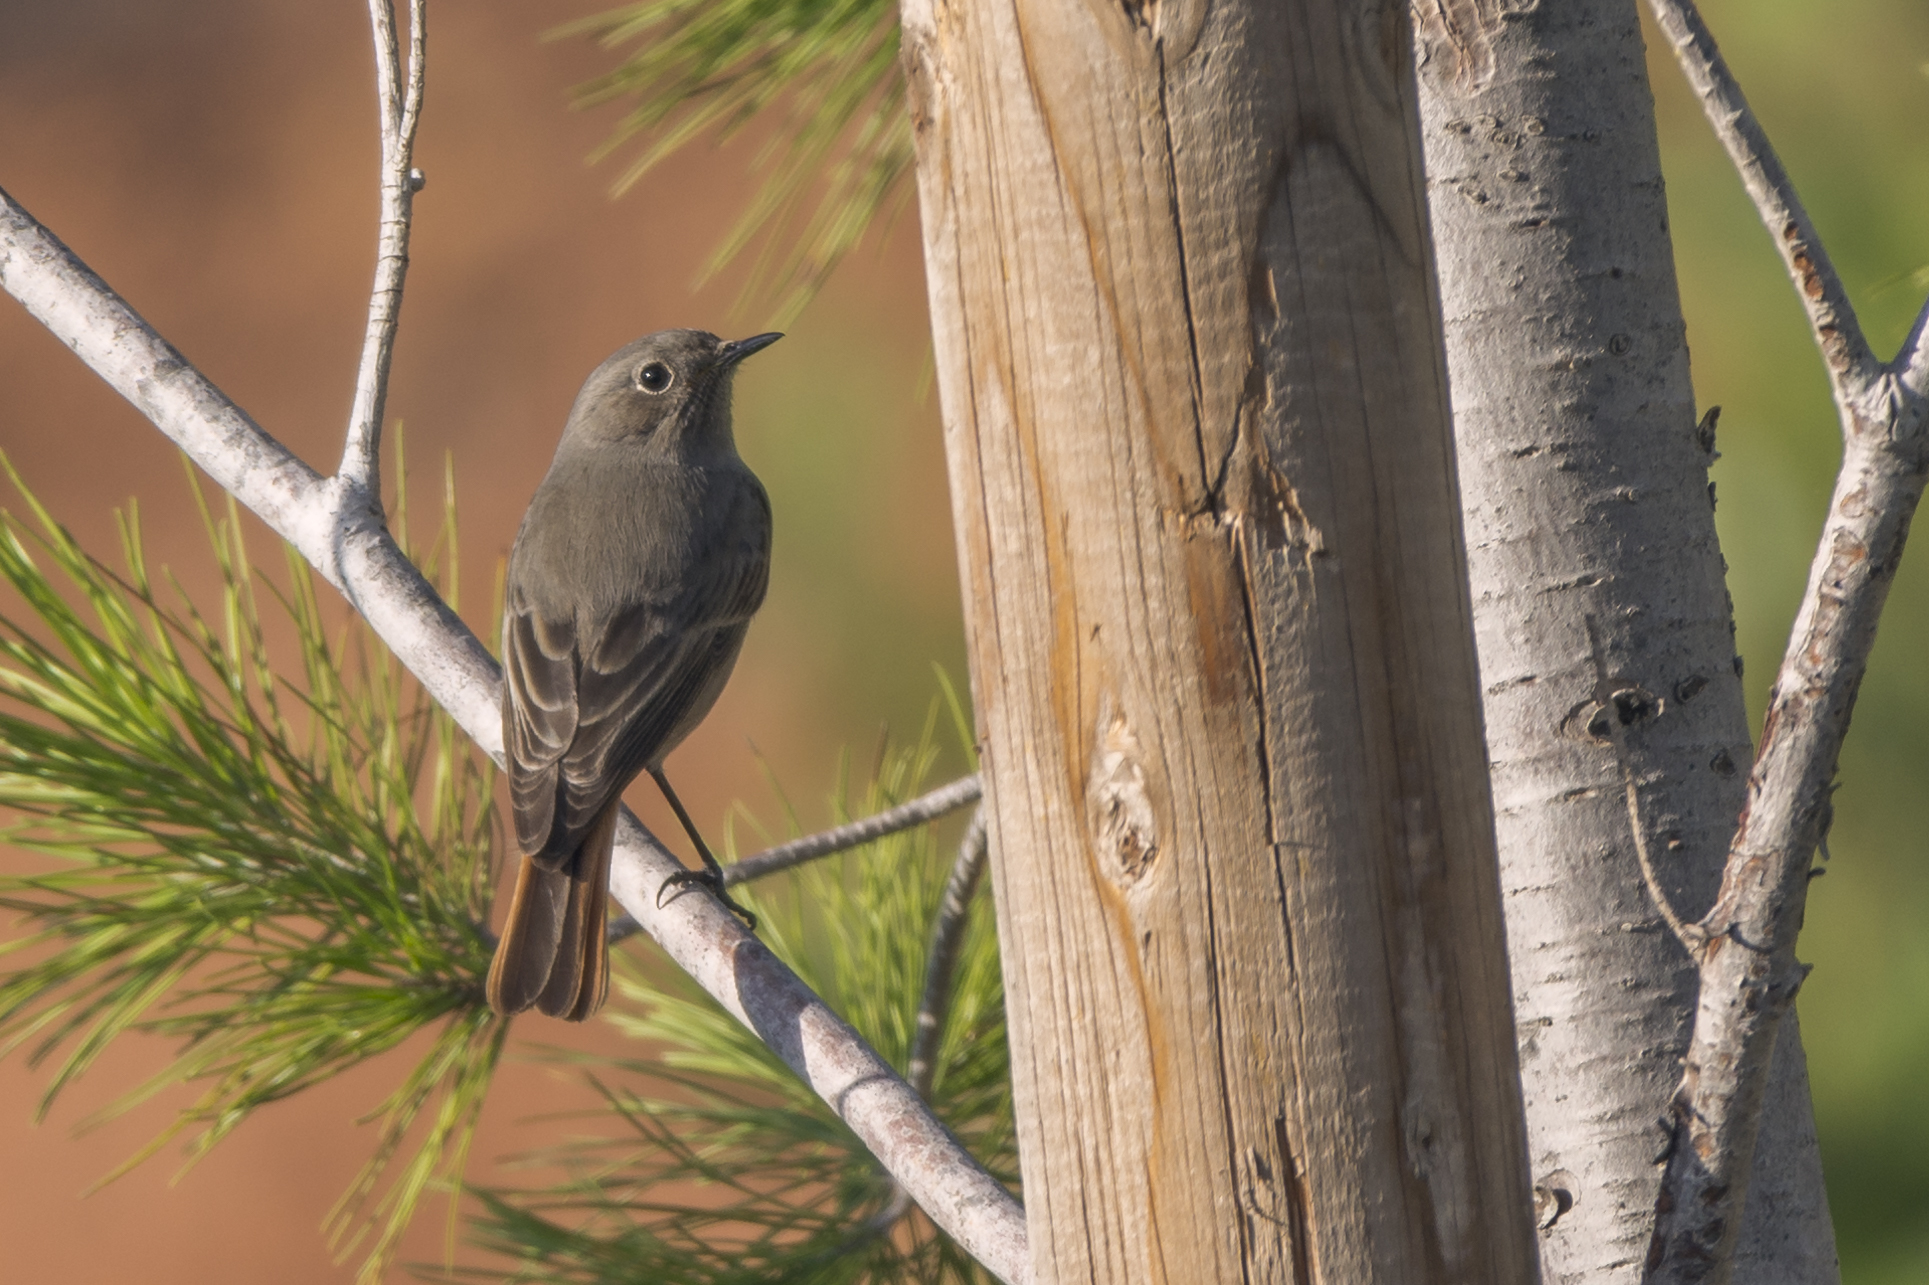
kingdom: Animalia
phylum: Chordata
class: Aves
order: Passeriformes
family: Muscicapidae
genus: Phoenicurus
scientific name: Phoenicurus ochruros
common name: Black redstart
